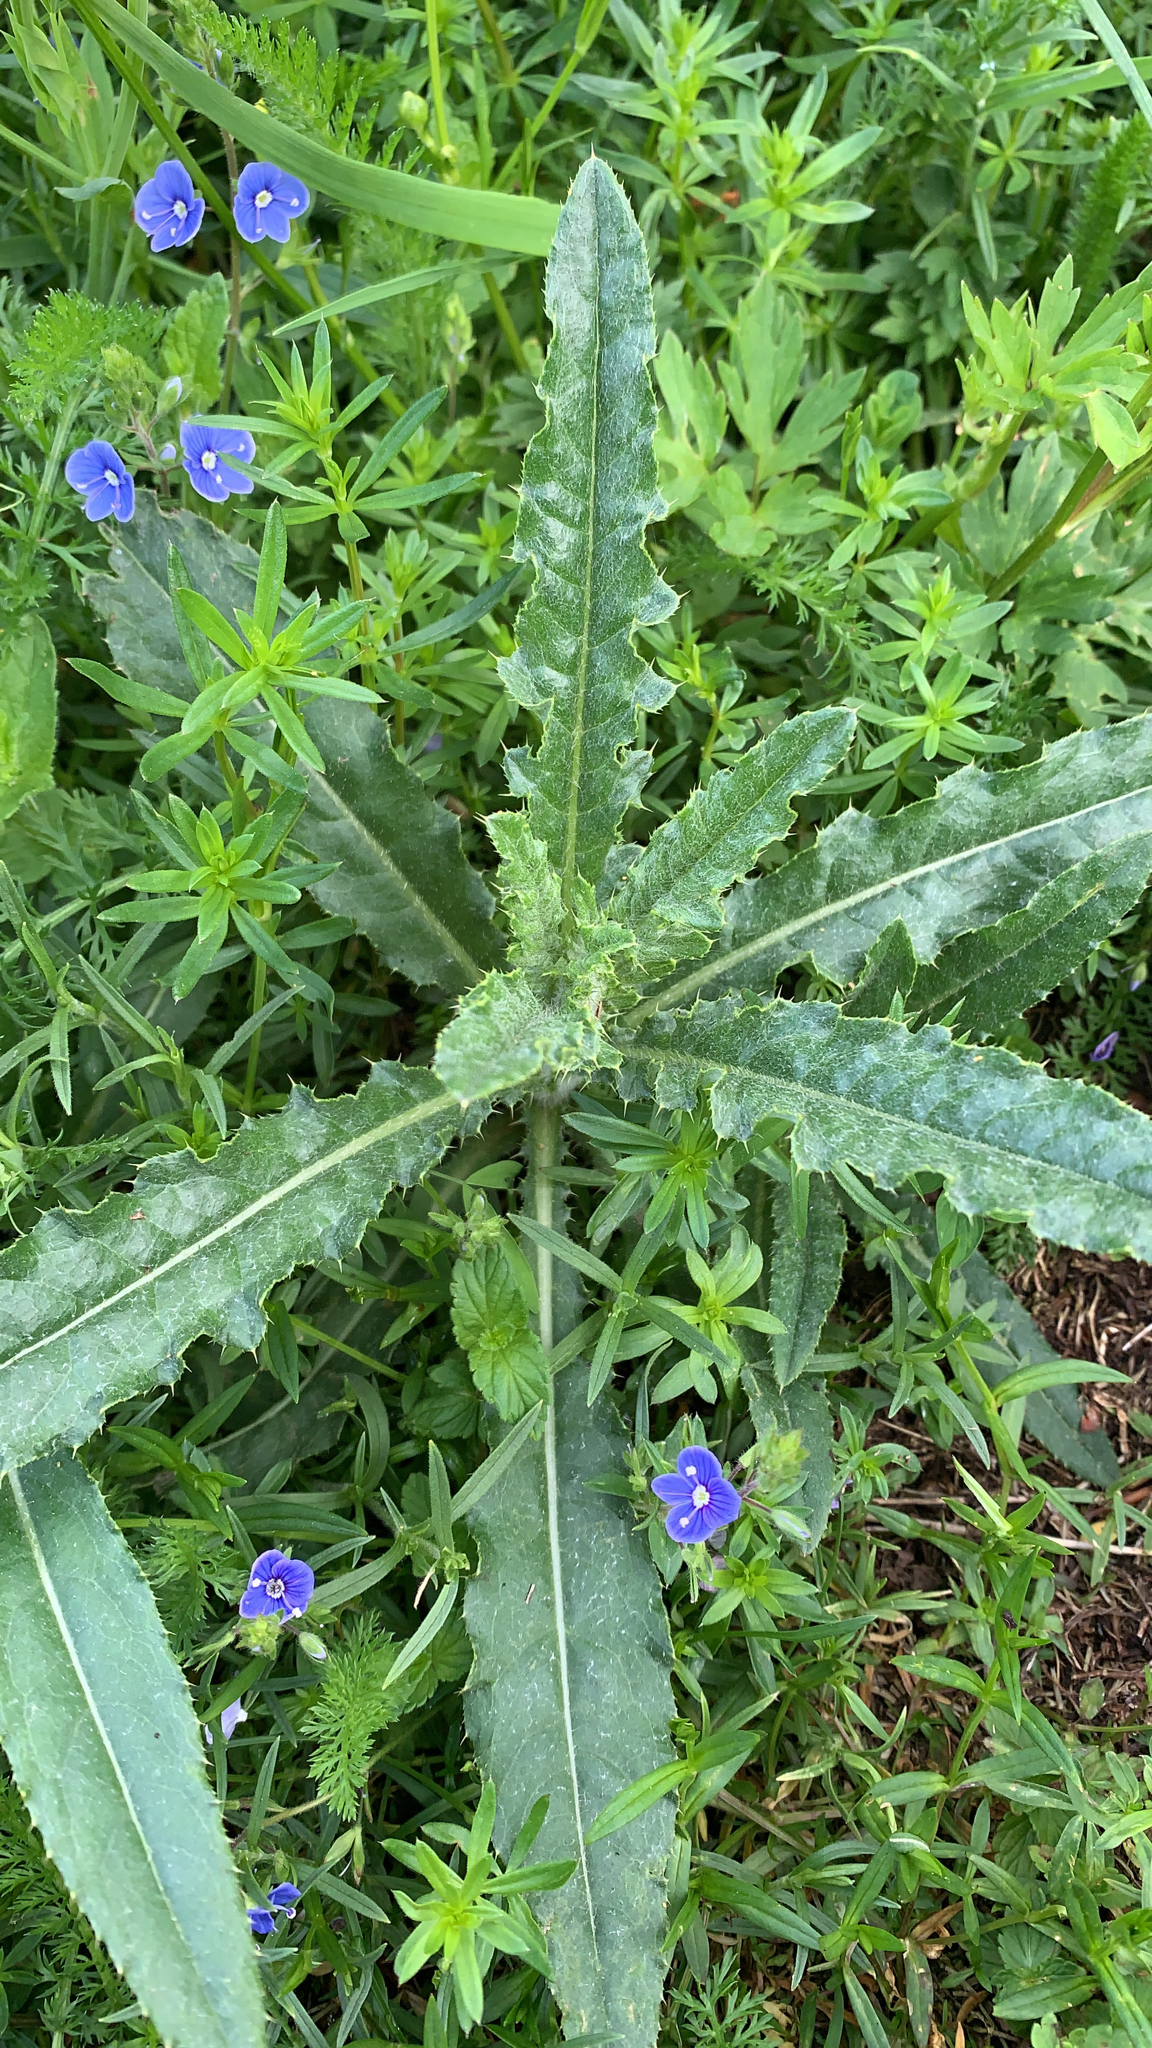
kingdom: Plantae
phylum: Tracheophyta
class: Magnoliopsida
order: Asterales
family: Asteraceae
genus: Cirsium
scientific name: Cirsium arvense
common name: Creeping thistle
